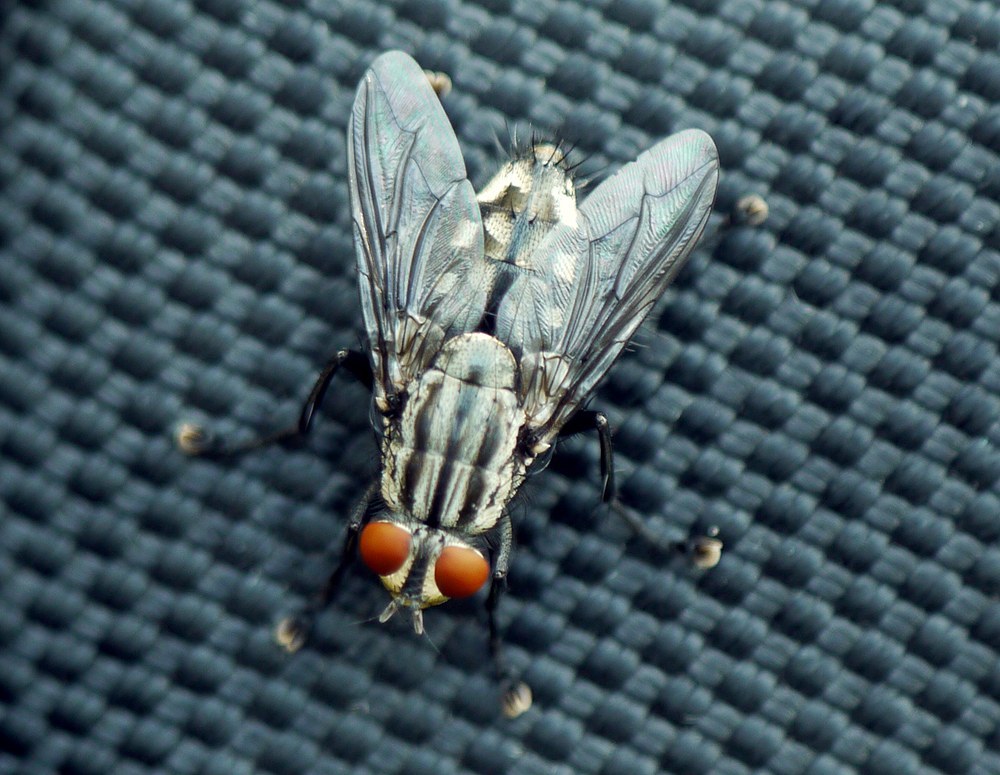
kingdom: Animalia
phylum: Arthropoda
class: Insecta
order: Diptera
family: Sarcophagidae
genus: Sarcophaga
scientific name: Sarcophaga
